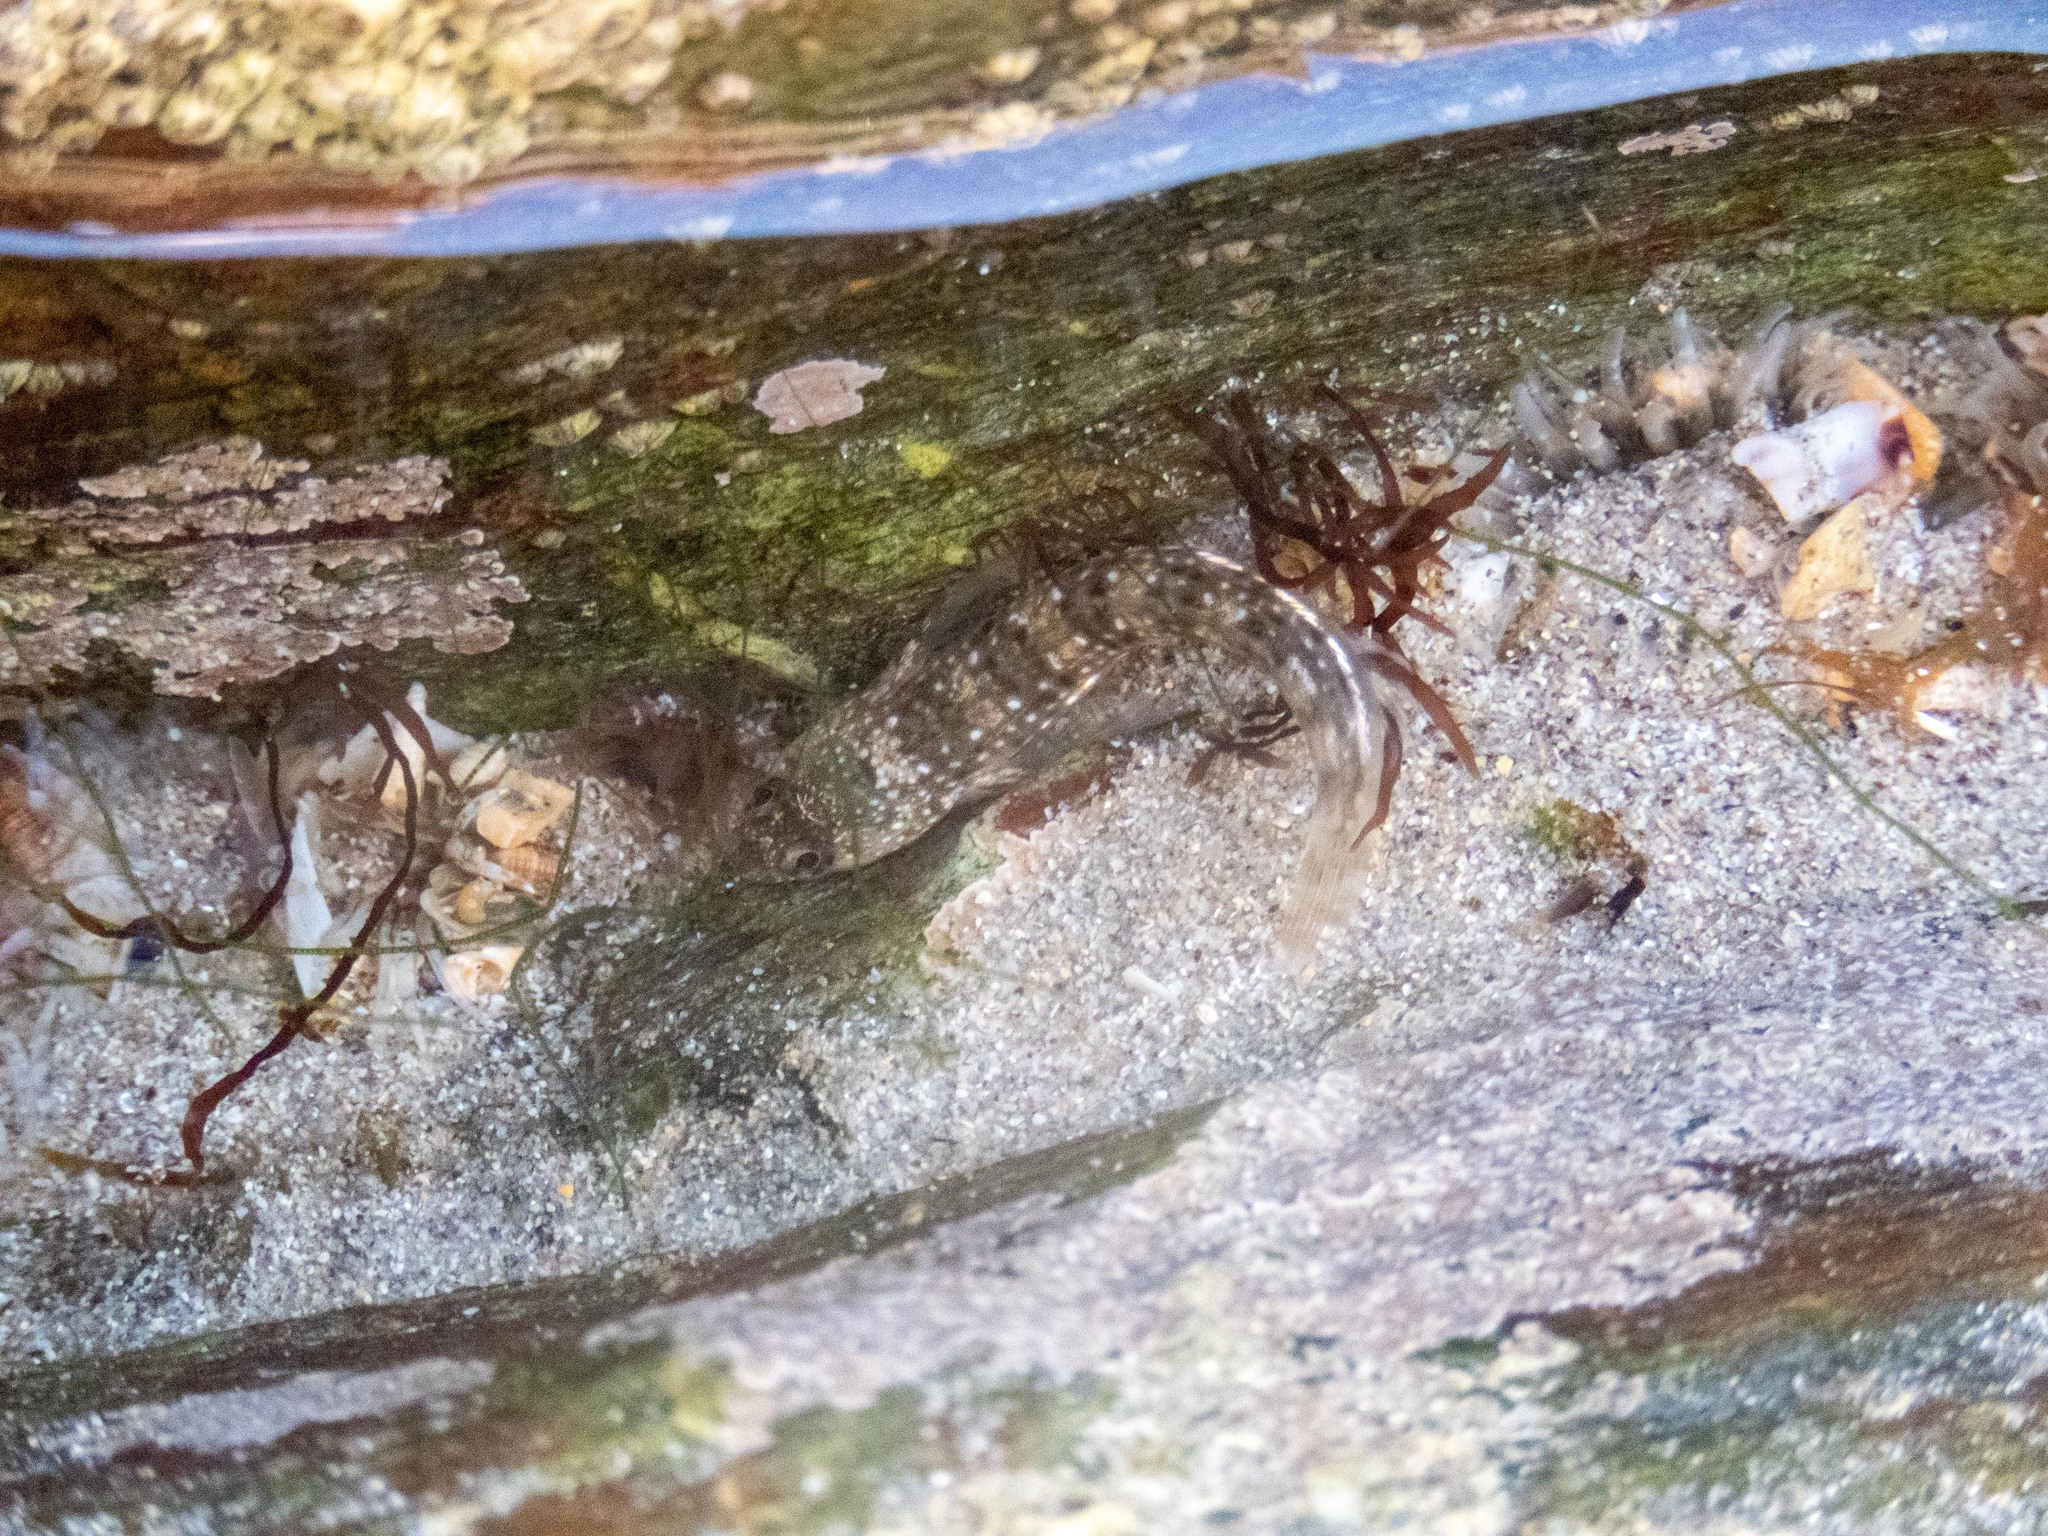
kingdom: Animalia
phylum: Chordata
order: Perciformes
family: Blenniidae
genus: Coryphoblennius
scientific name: Coryphoblennius galerita
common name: Montagu's blenny
